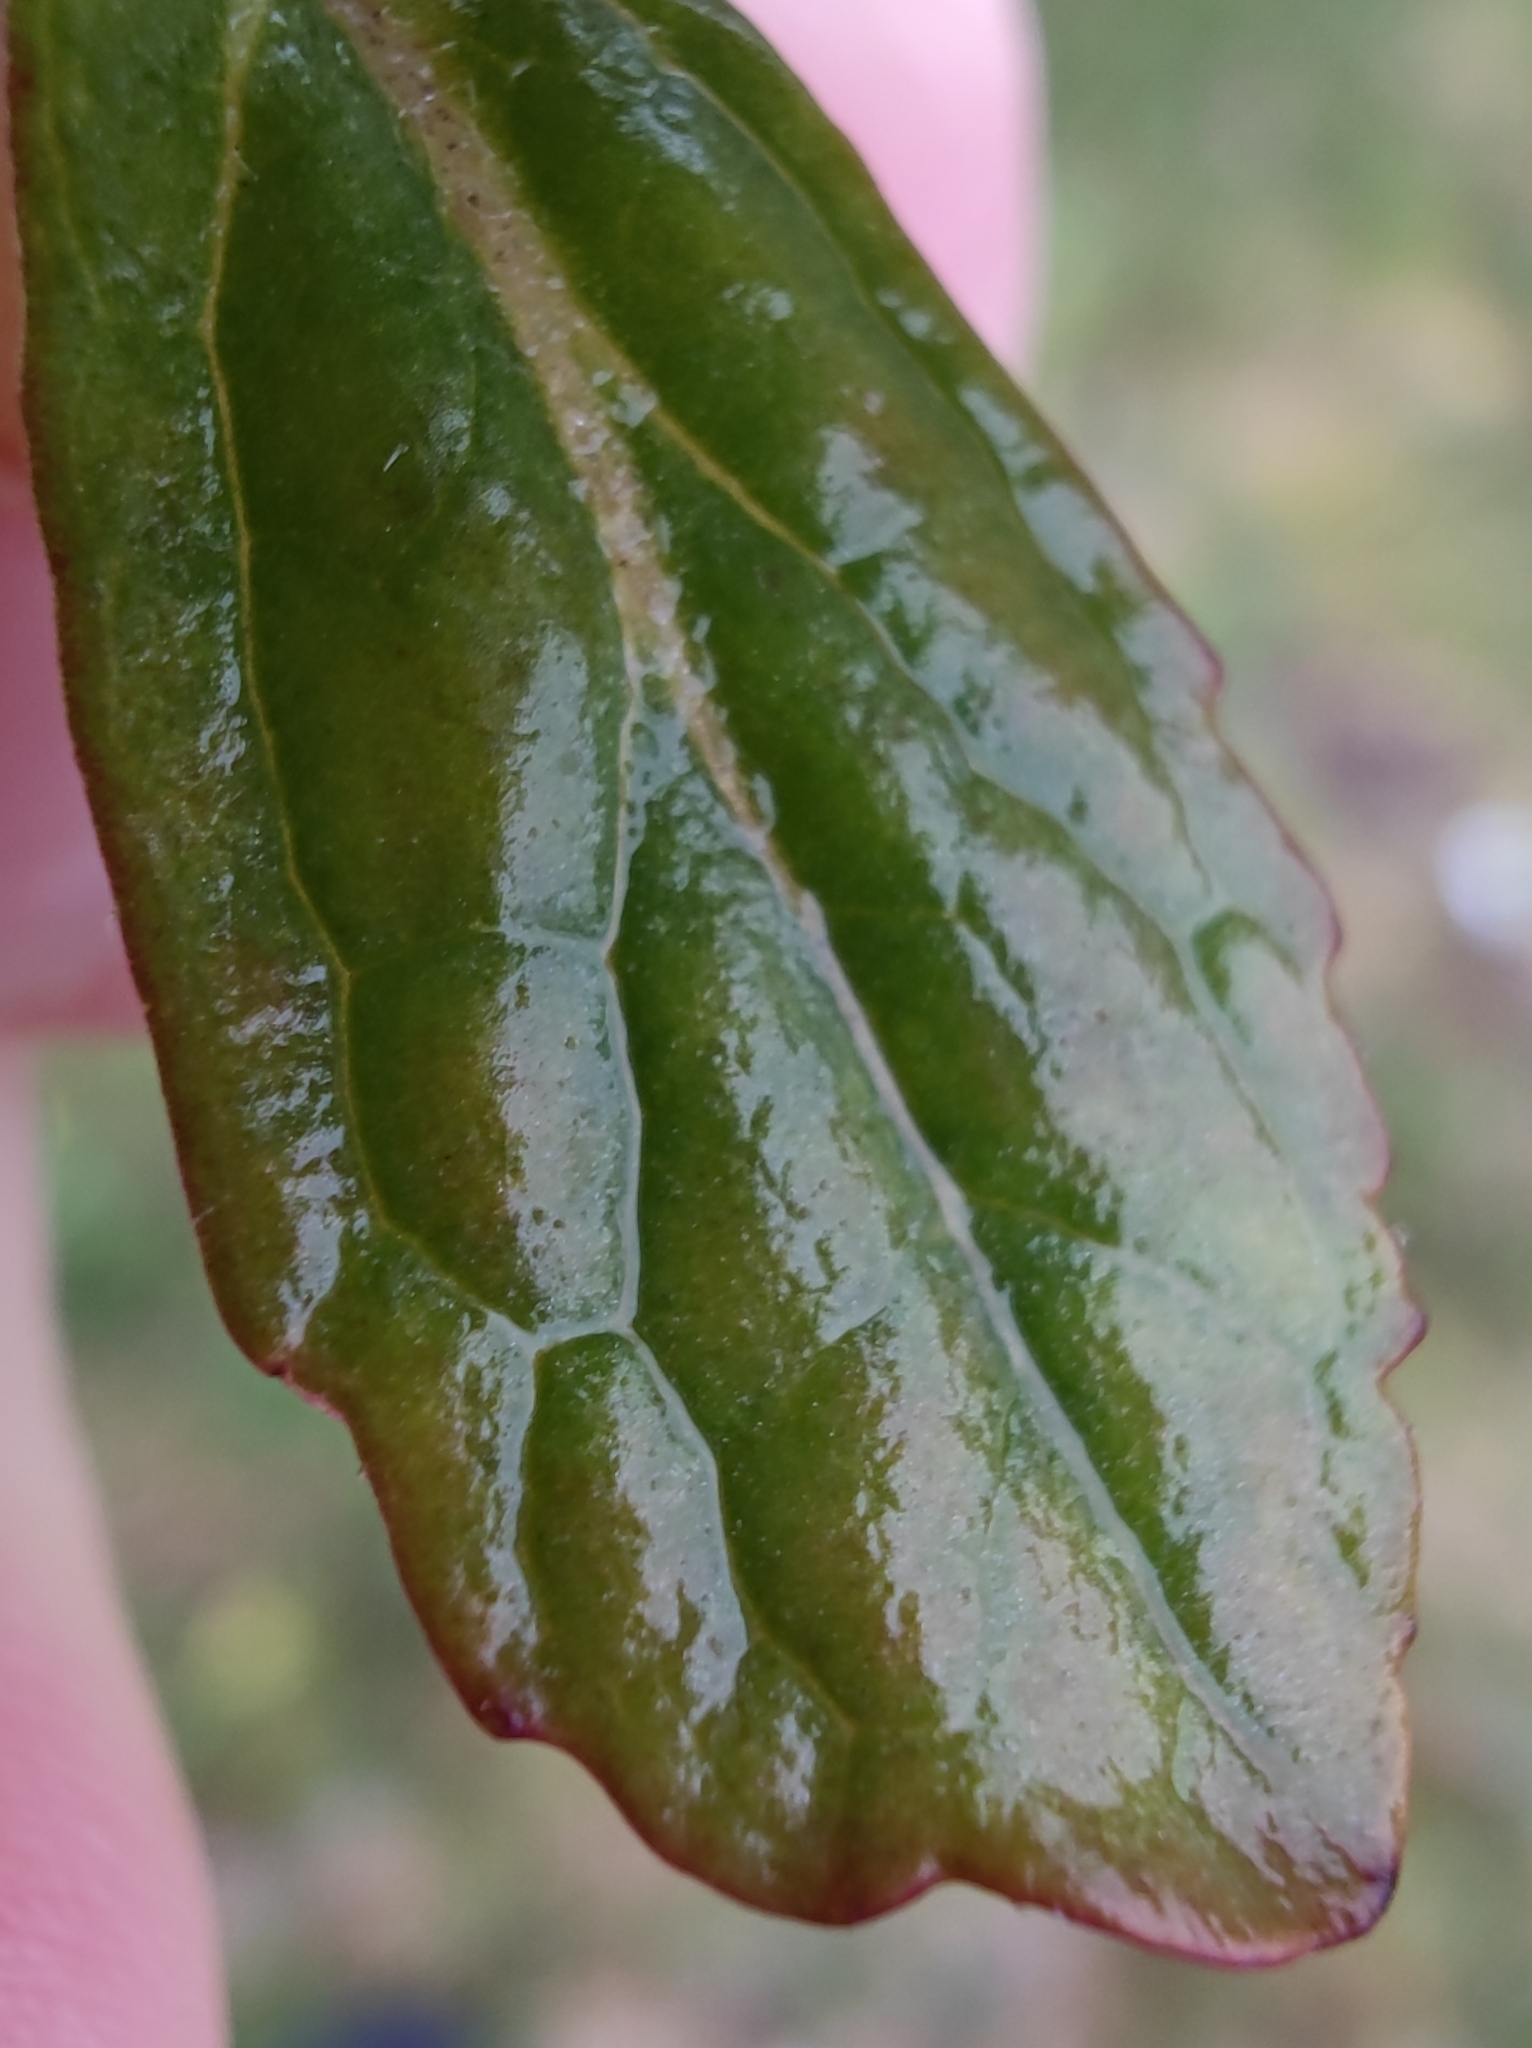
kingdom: Plantae
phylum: Tracheophyta
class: Magnoliopsida
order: Lamiales
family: Lamiaceae
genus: Ajuga
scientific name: Ajuga reptans
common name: Bugle
